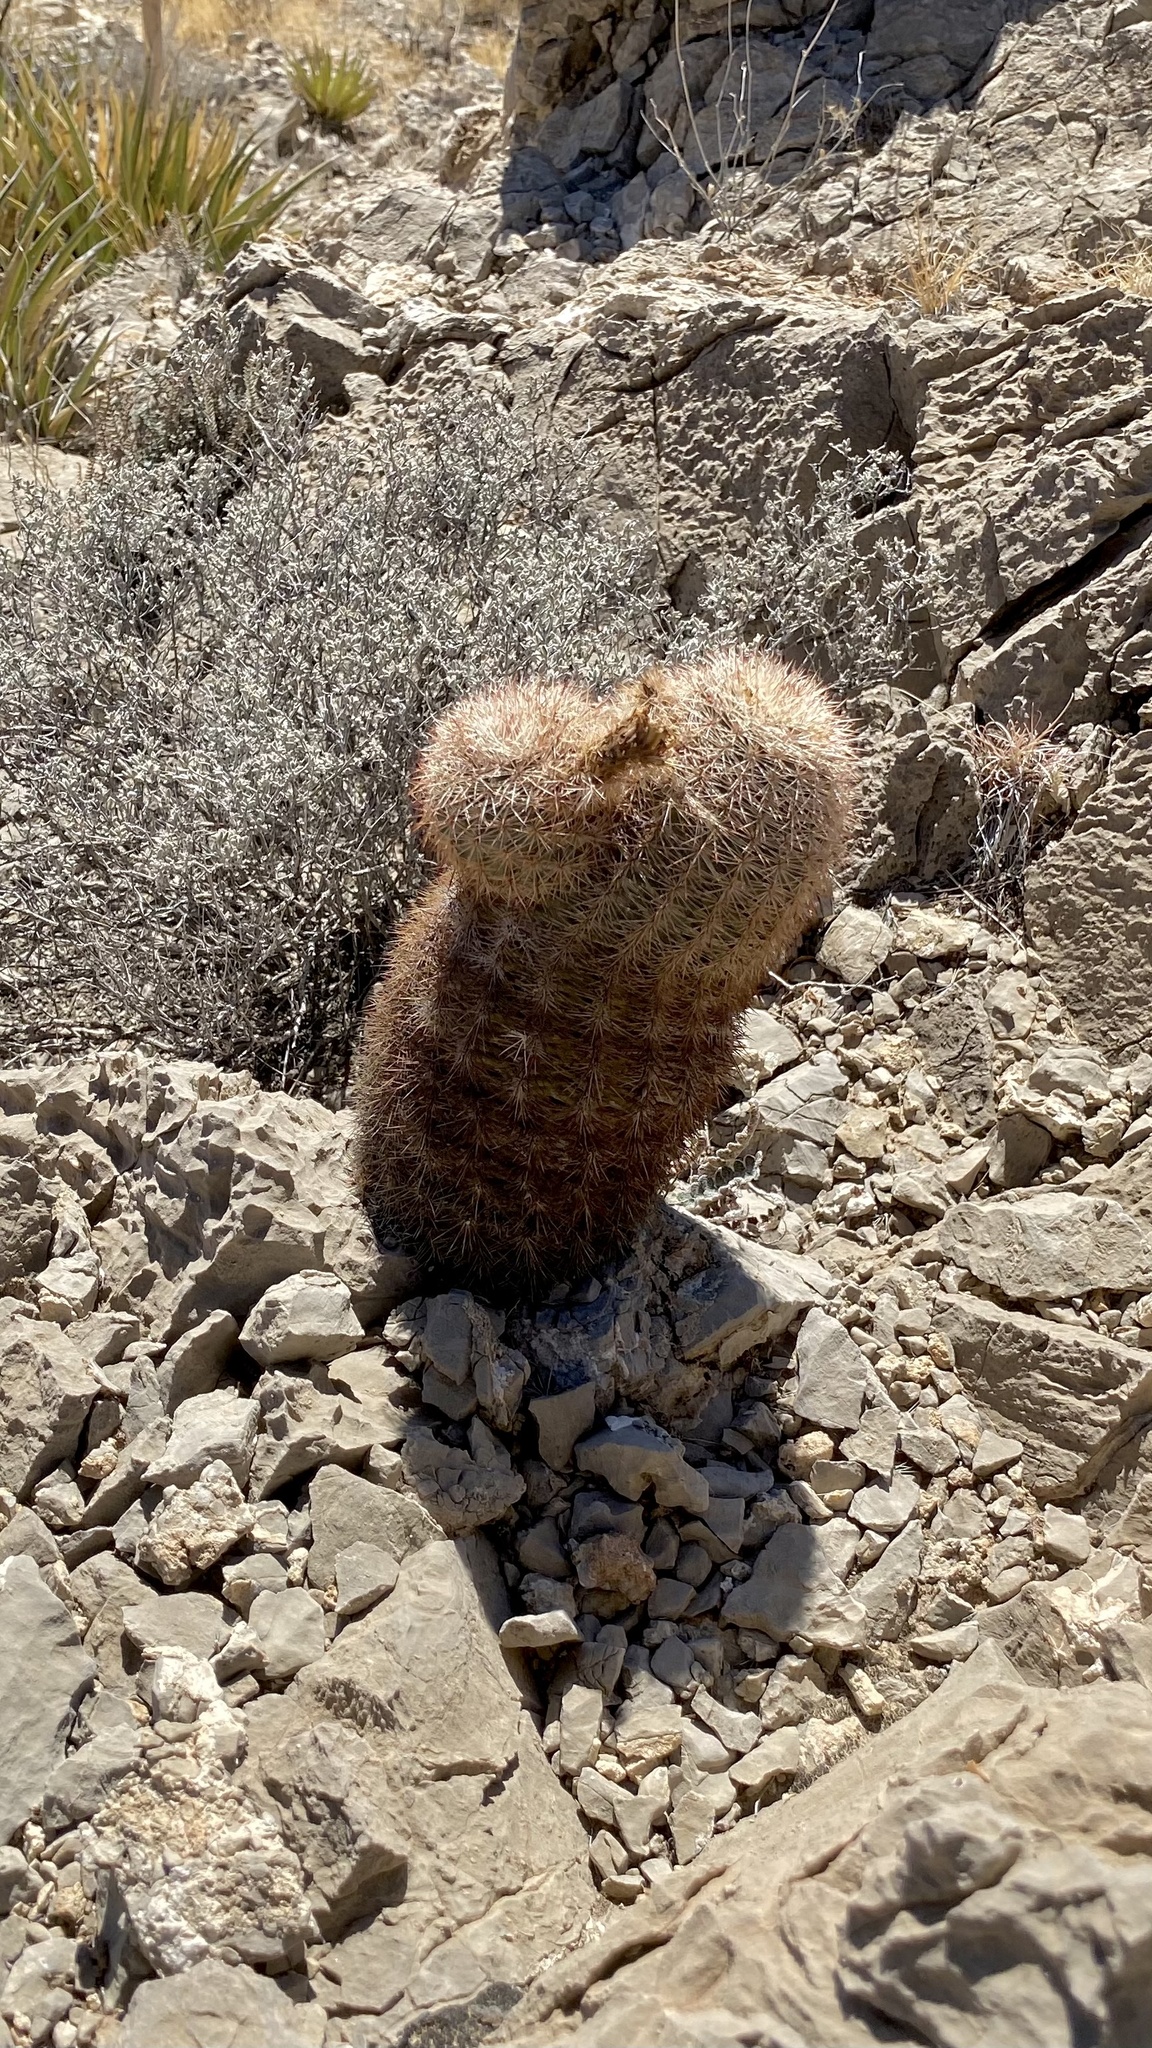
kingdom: Plantae
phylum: Tracheophyta
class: Magnoliopsida
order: Caryophyllales
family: Cactaceae
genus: Echinocereus
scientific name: Echinocereus dasyacanthus
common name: Spiny hedgehog cactus
